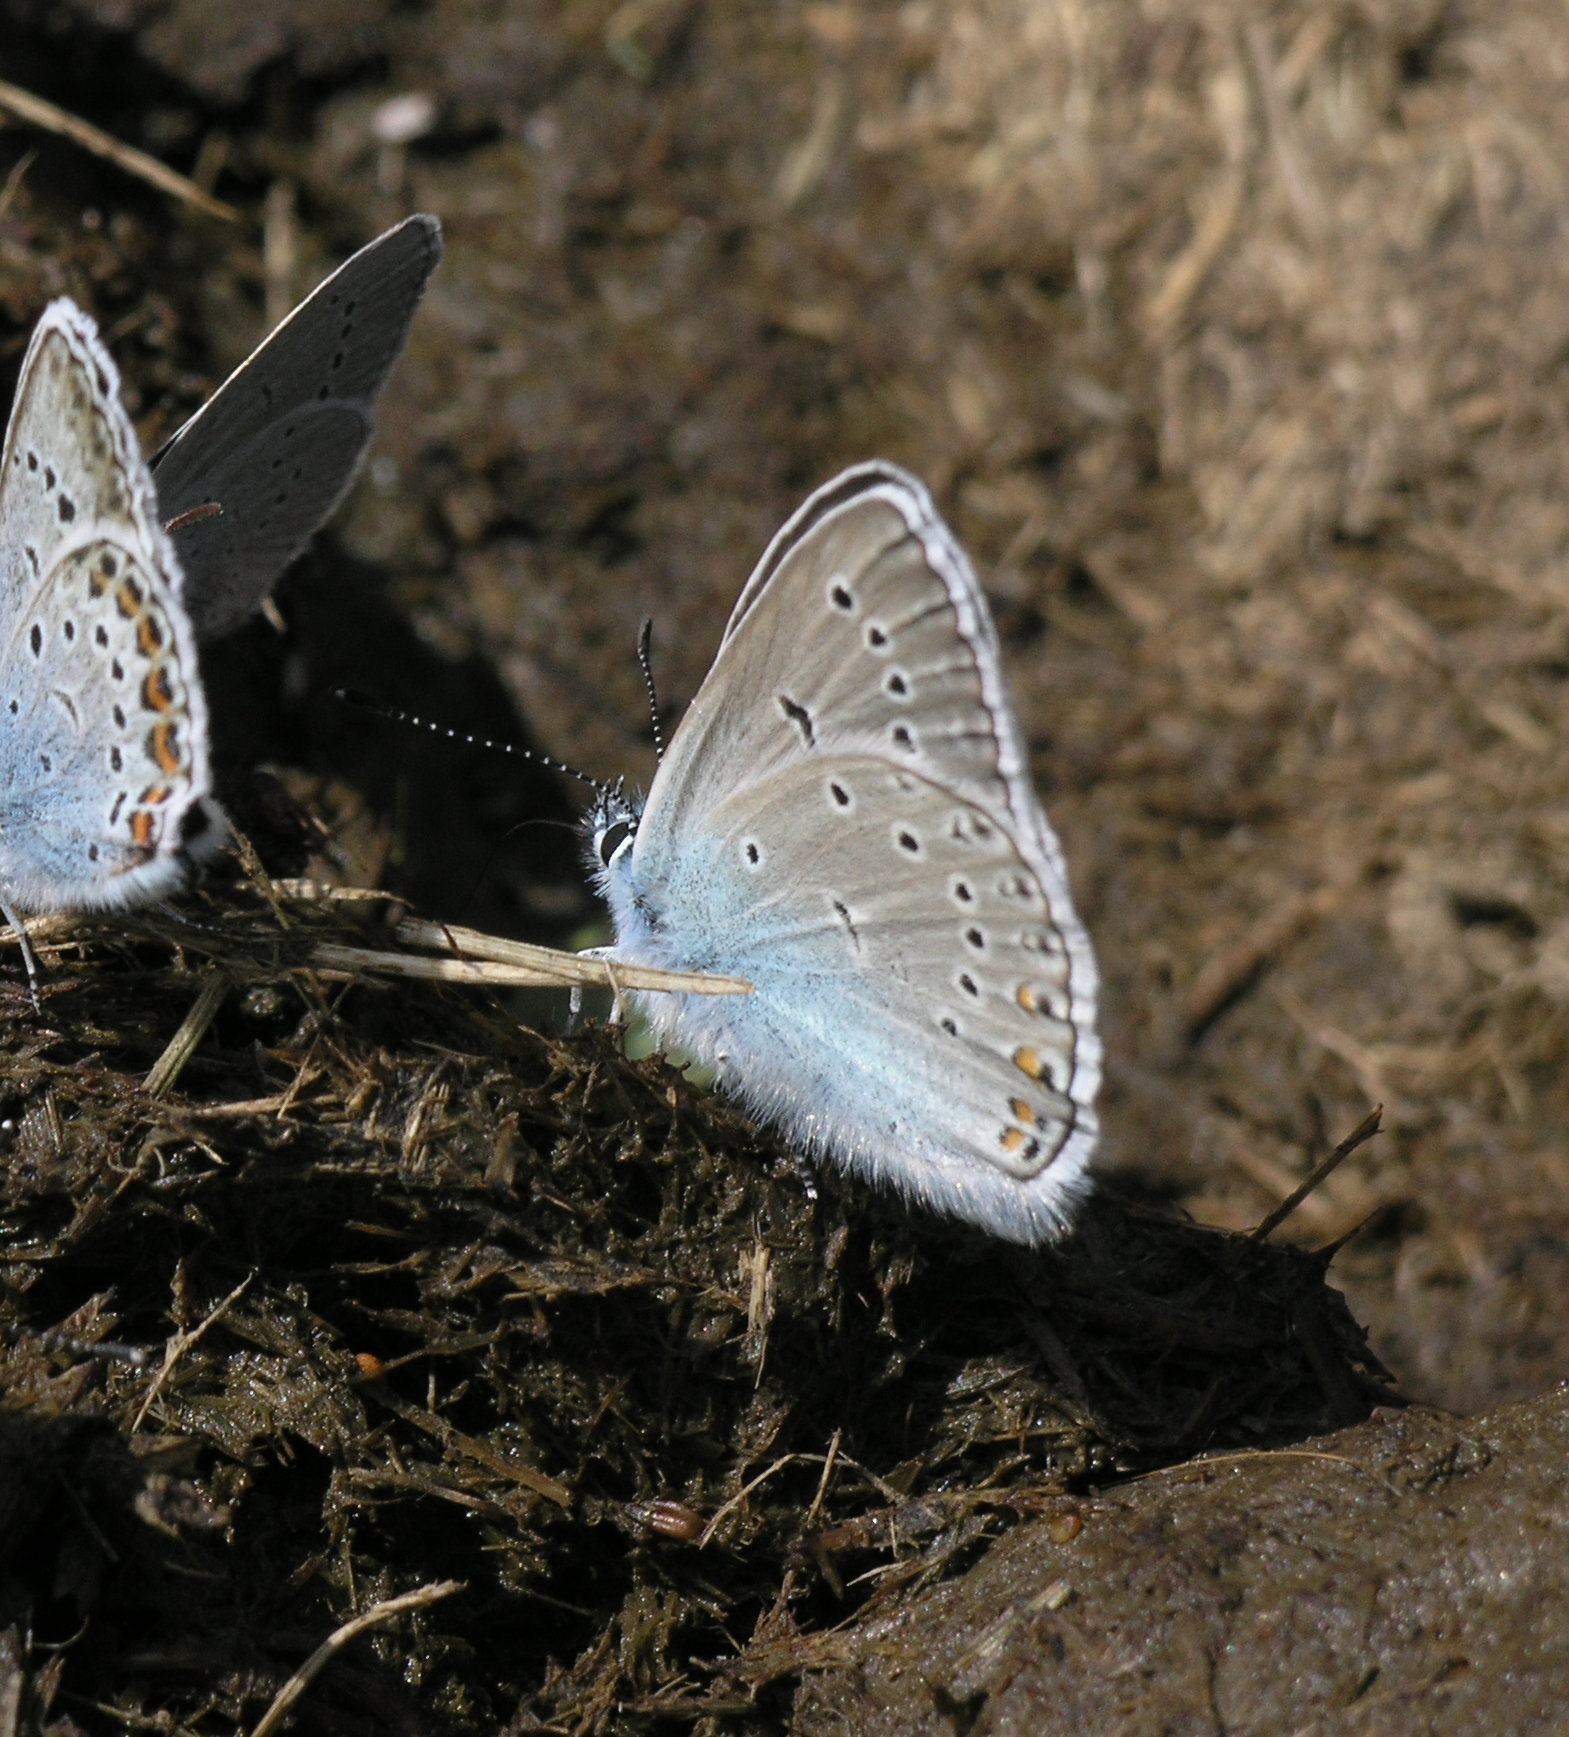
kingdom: Animalia
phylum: Arthropoda
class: Insecta
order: Lepidoptera
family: Lycaenidae
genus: Plebejus
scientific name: Plebejus amanda
